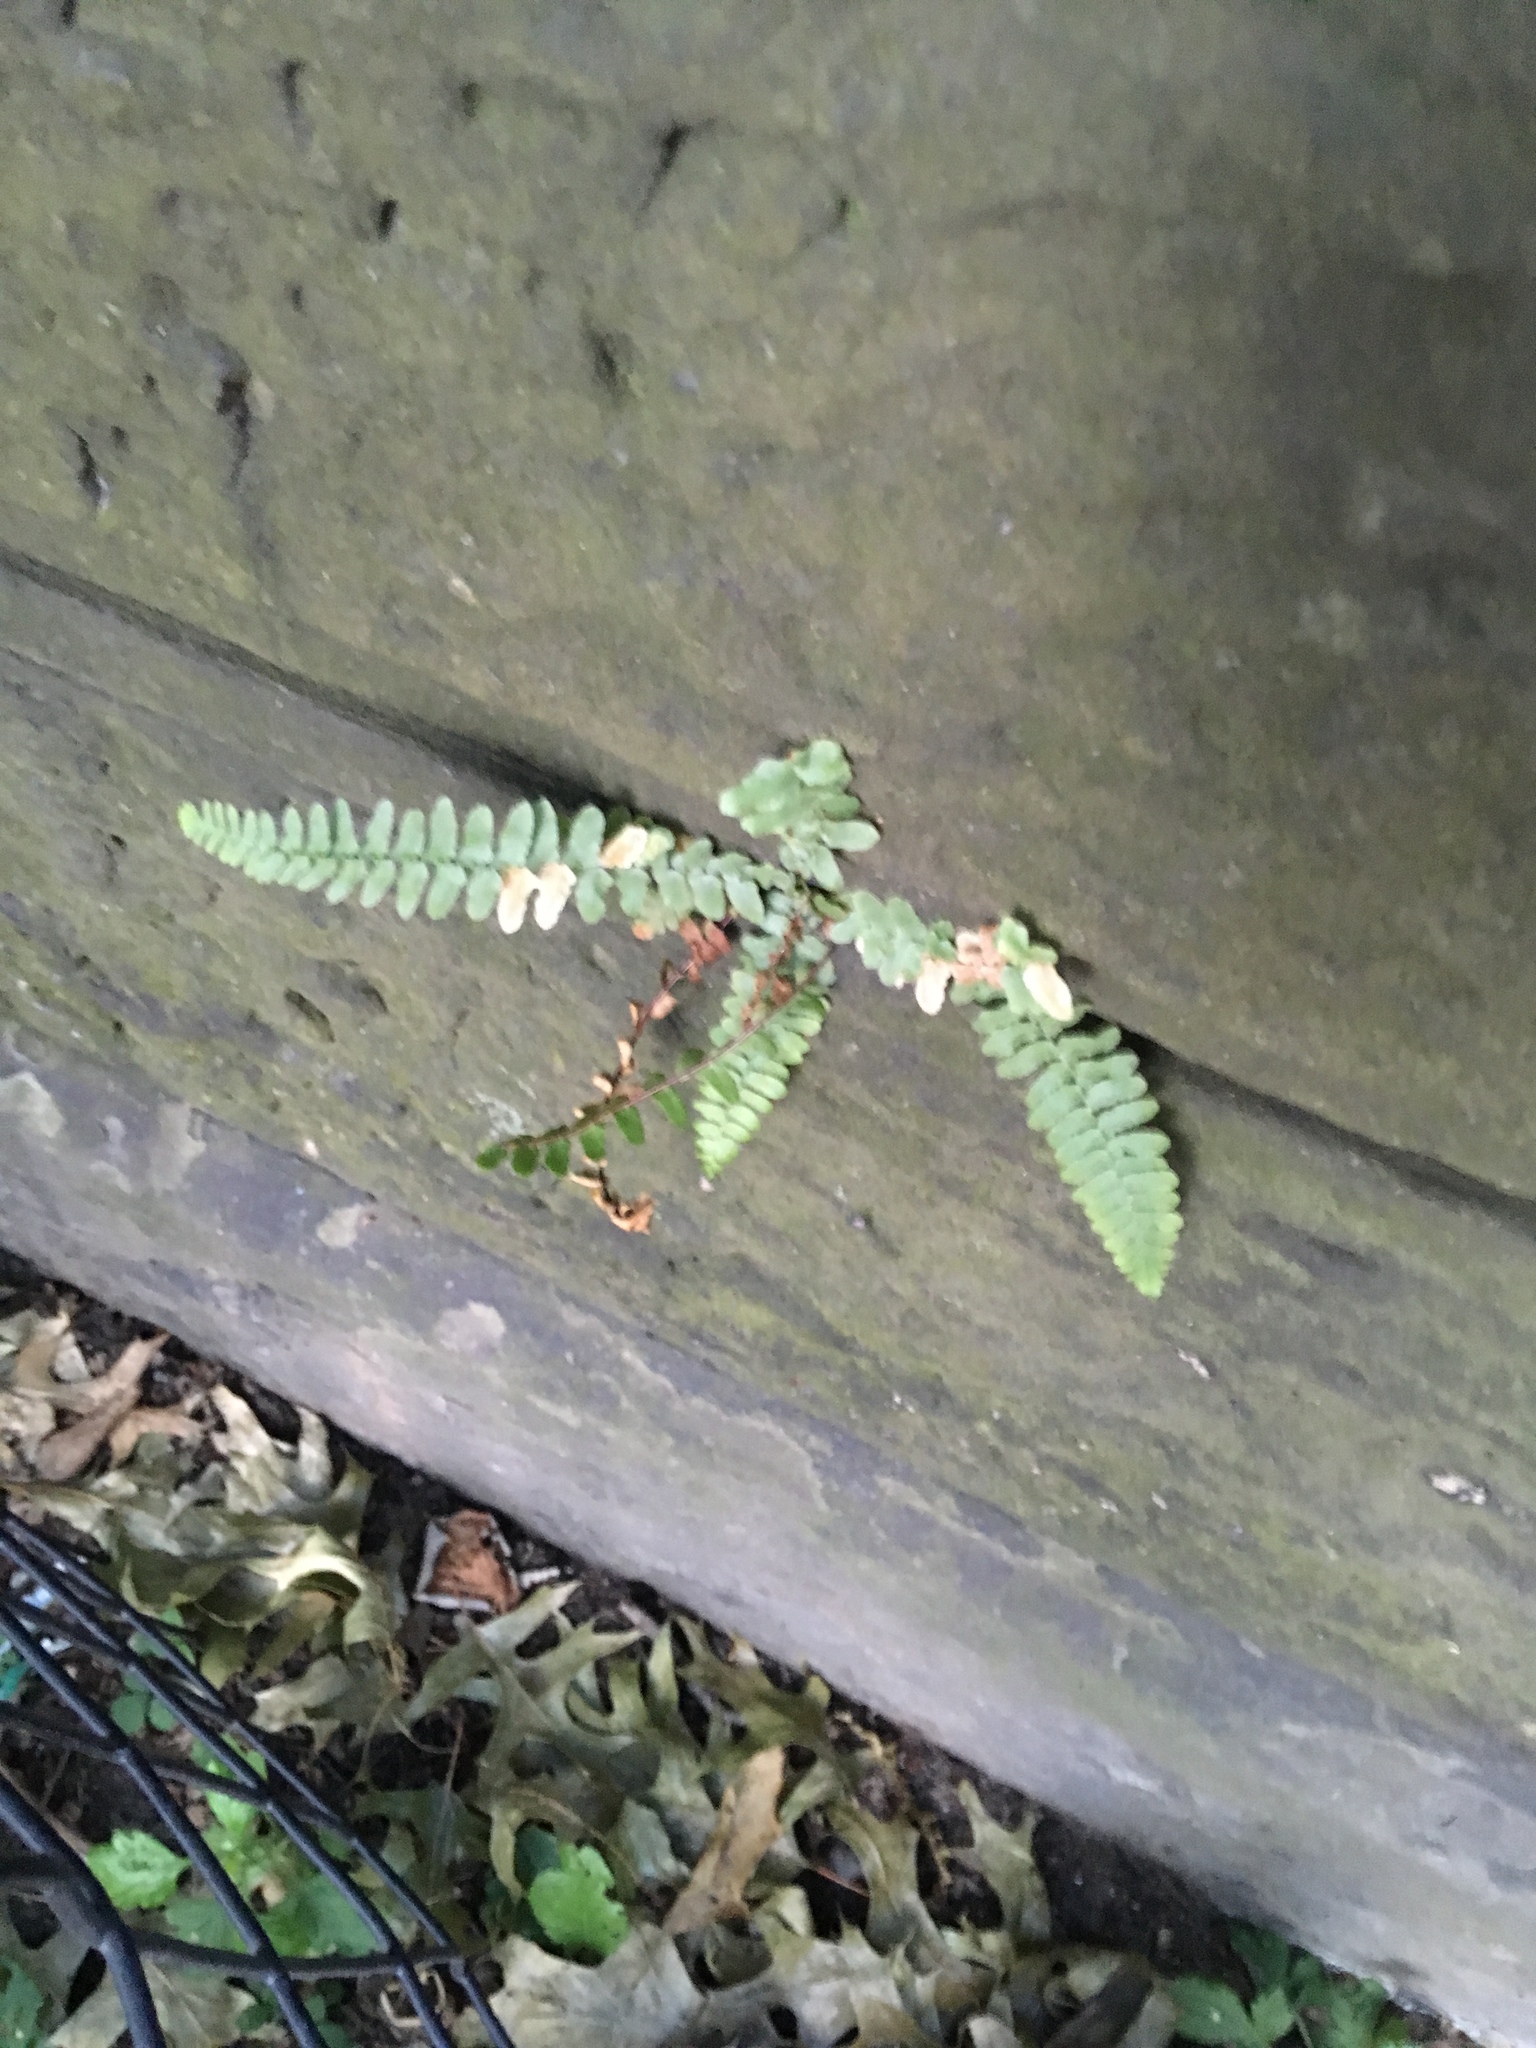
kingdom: Plantae
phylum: Tracheophyta
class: Polypodiopsida
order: Polypodiales
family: Aspleniaceae
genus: Asplenium
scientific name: Asplenium platyneuron
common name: Ebony spleenwort
